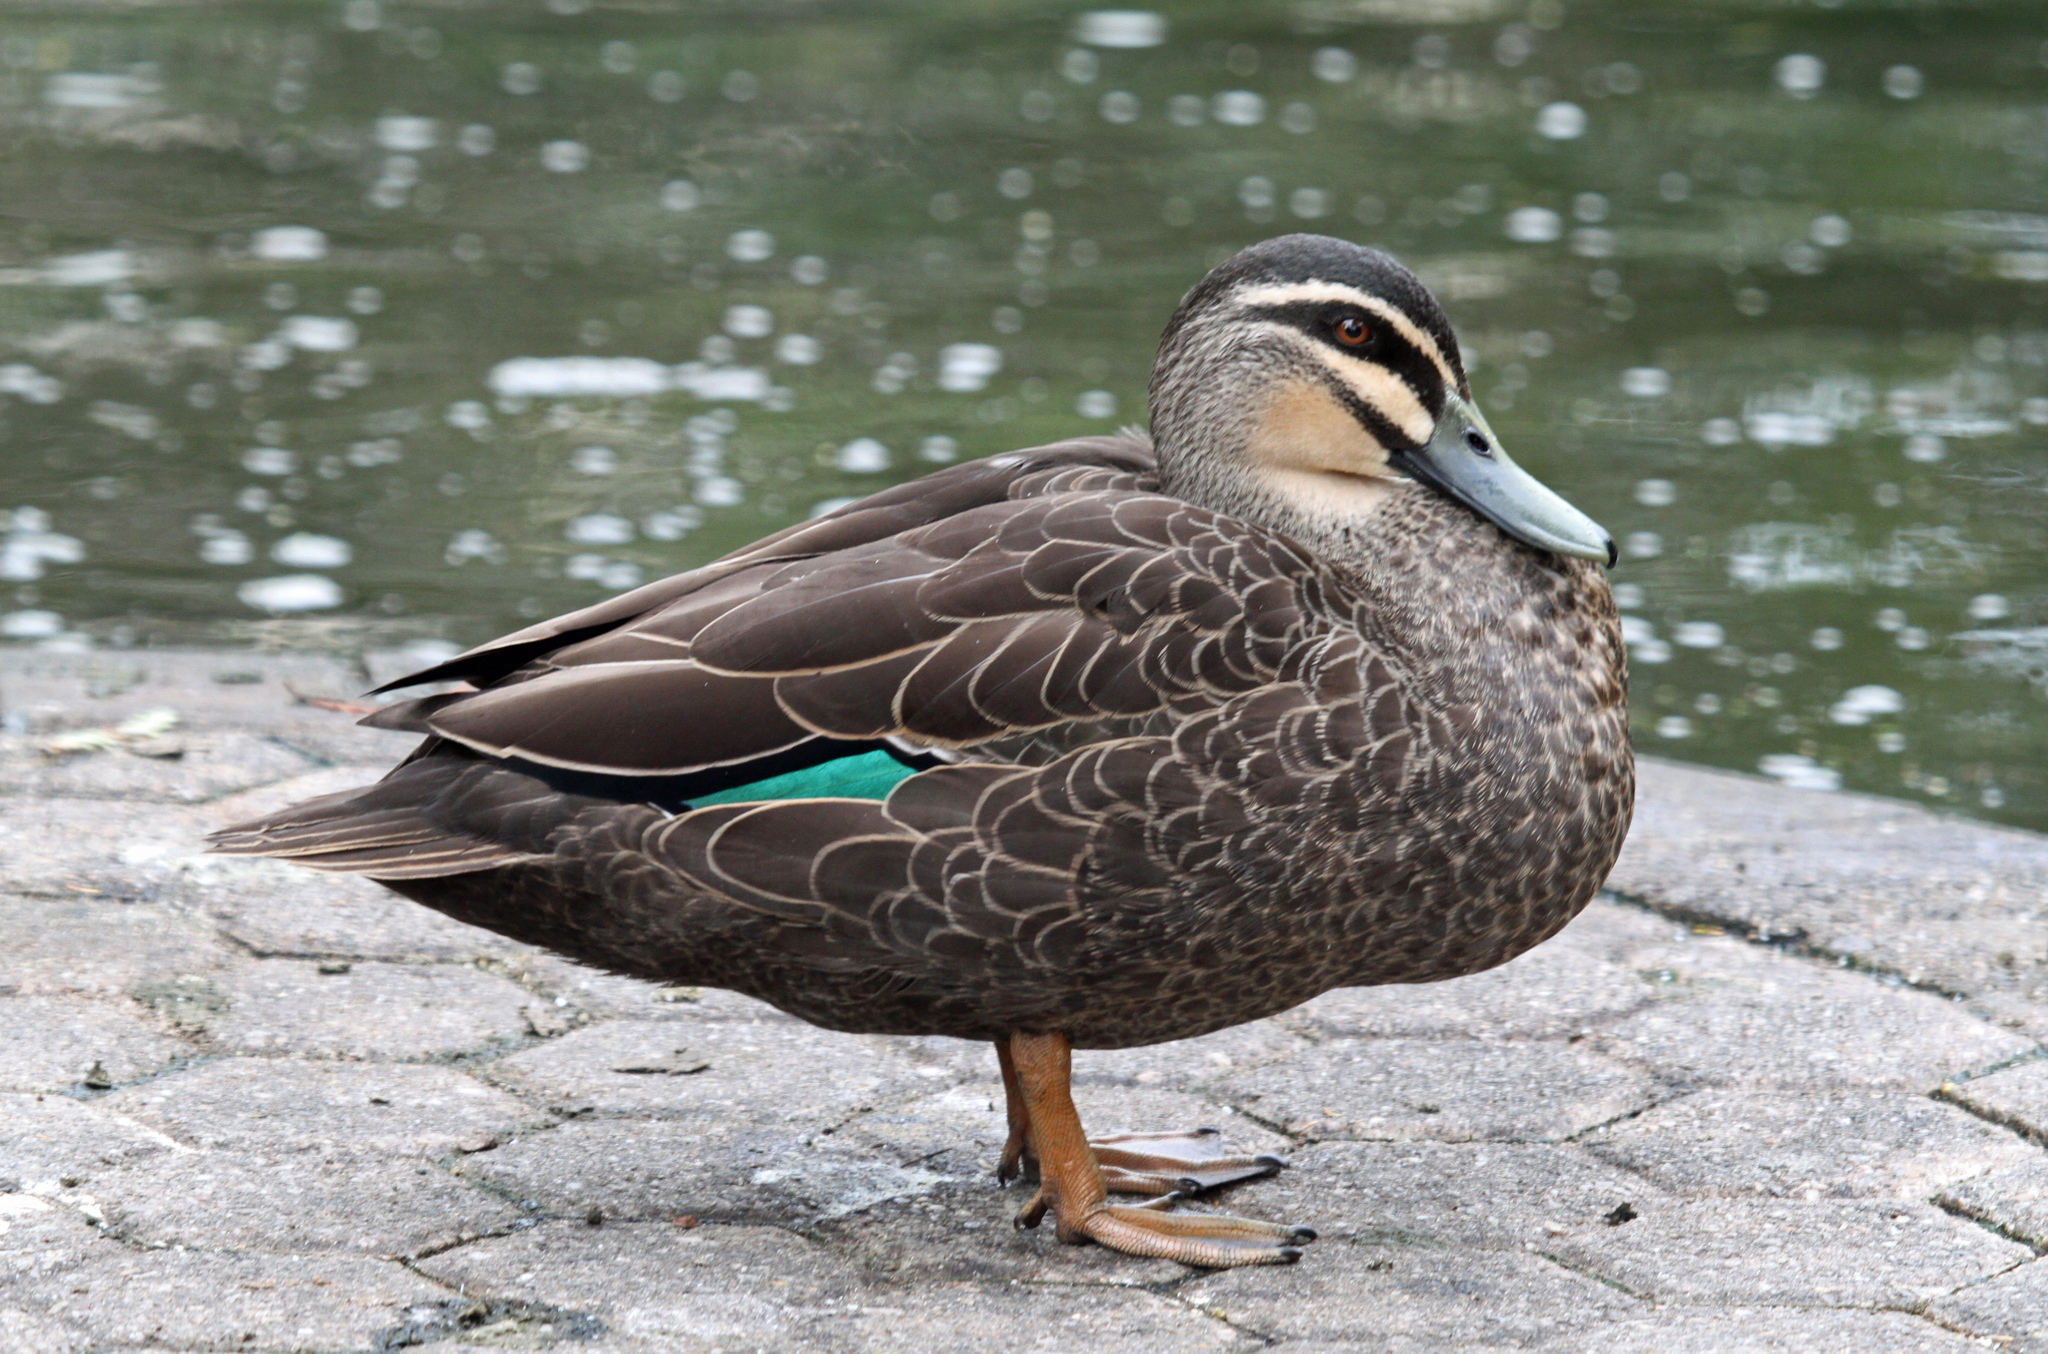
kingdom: Animalia
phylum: Chordata
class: Aves
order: Anseriformes
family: Anatidae
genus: Anas
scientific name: Anas
